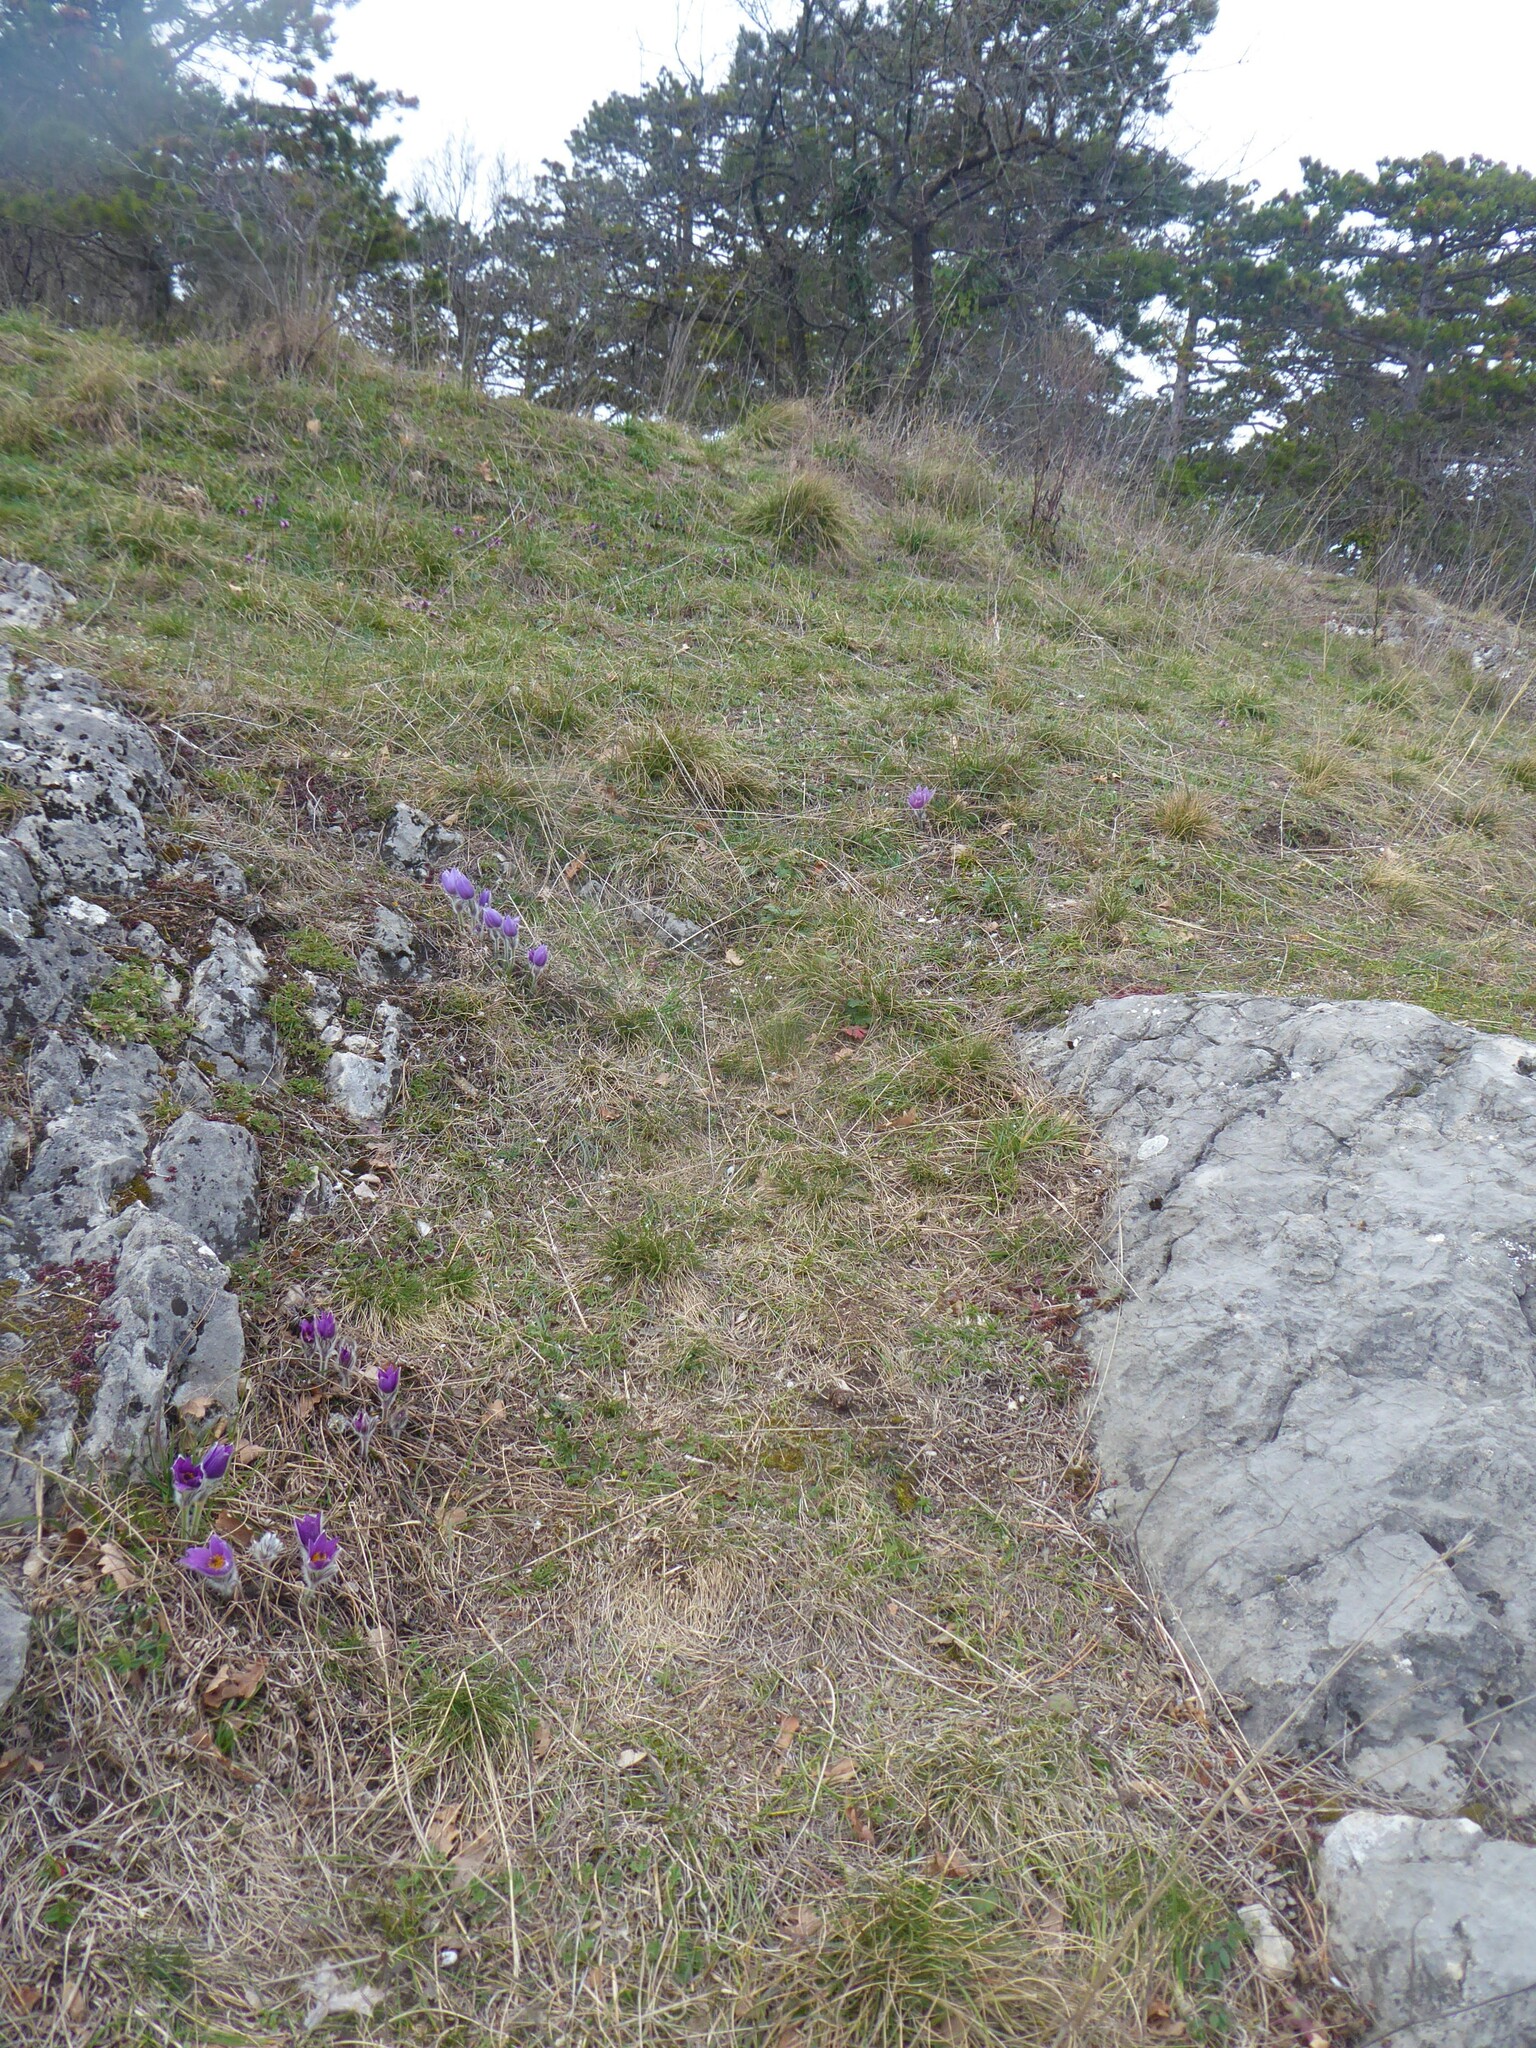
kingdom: Plantae
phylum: Tracheophyta
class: Magnoliopsida
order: Ranunculales
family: Ranunculaceae
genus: Pulsatilla
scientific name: Pulsatilla grandis
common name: Greater pasque flower
